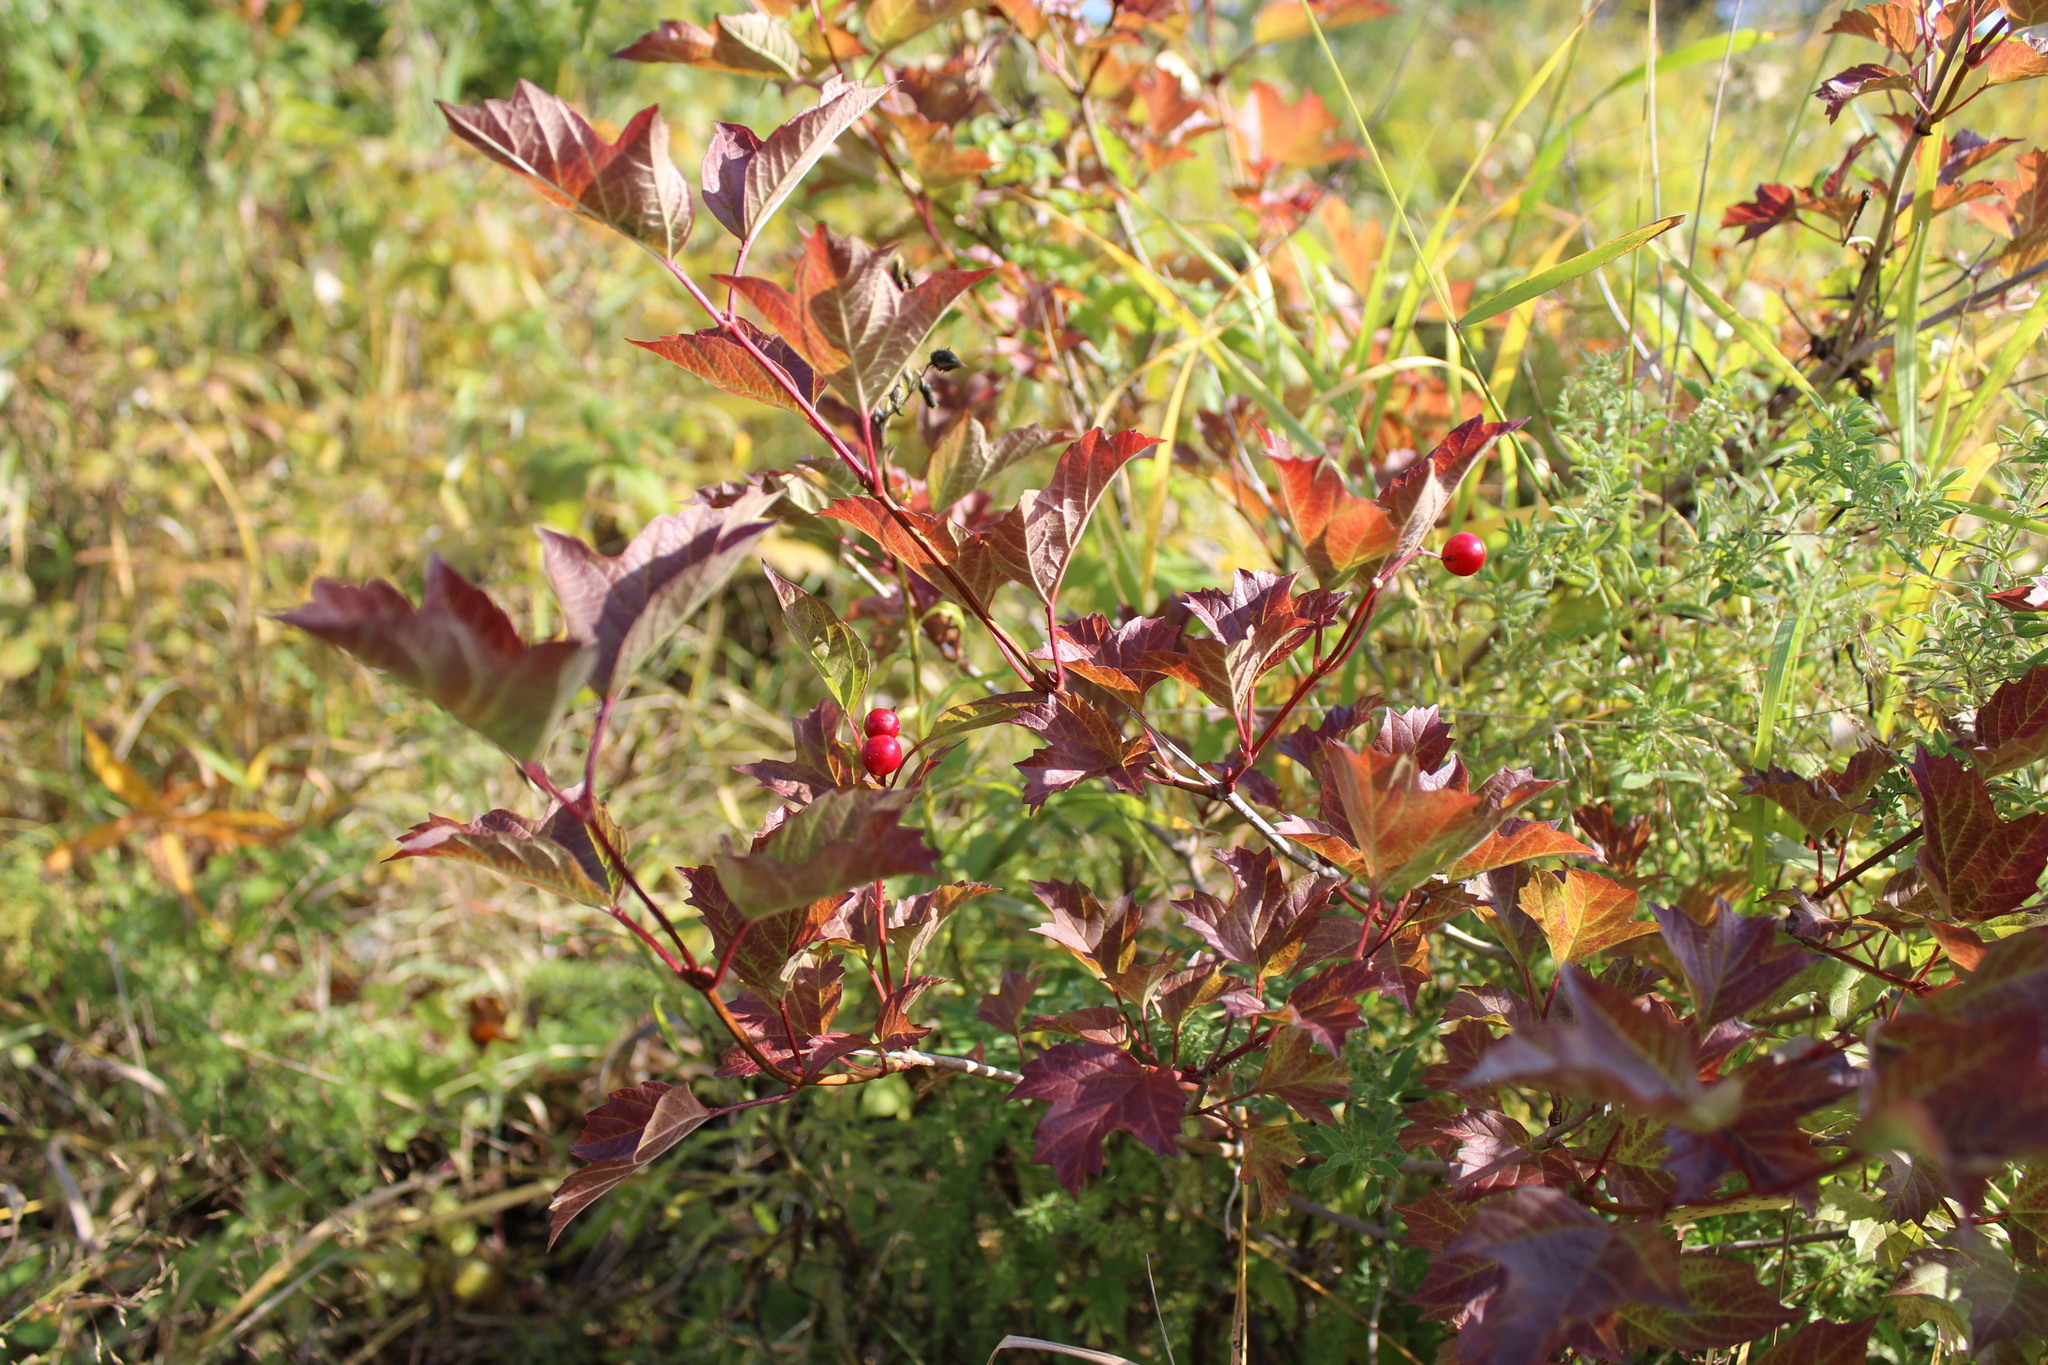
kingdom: Plantae
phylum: Tracheophyta
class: Magnoliopsida
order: Dipsacales
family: Viburnaceae
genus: Viburnum
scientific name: Viburnum opulus
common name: Guelder-rose
